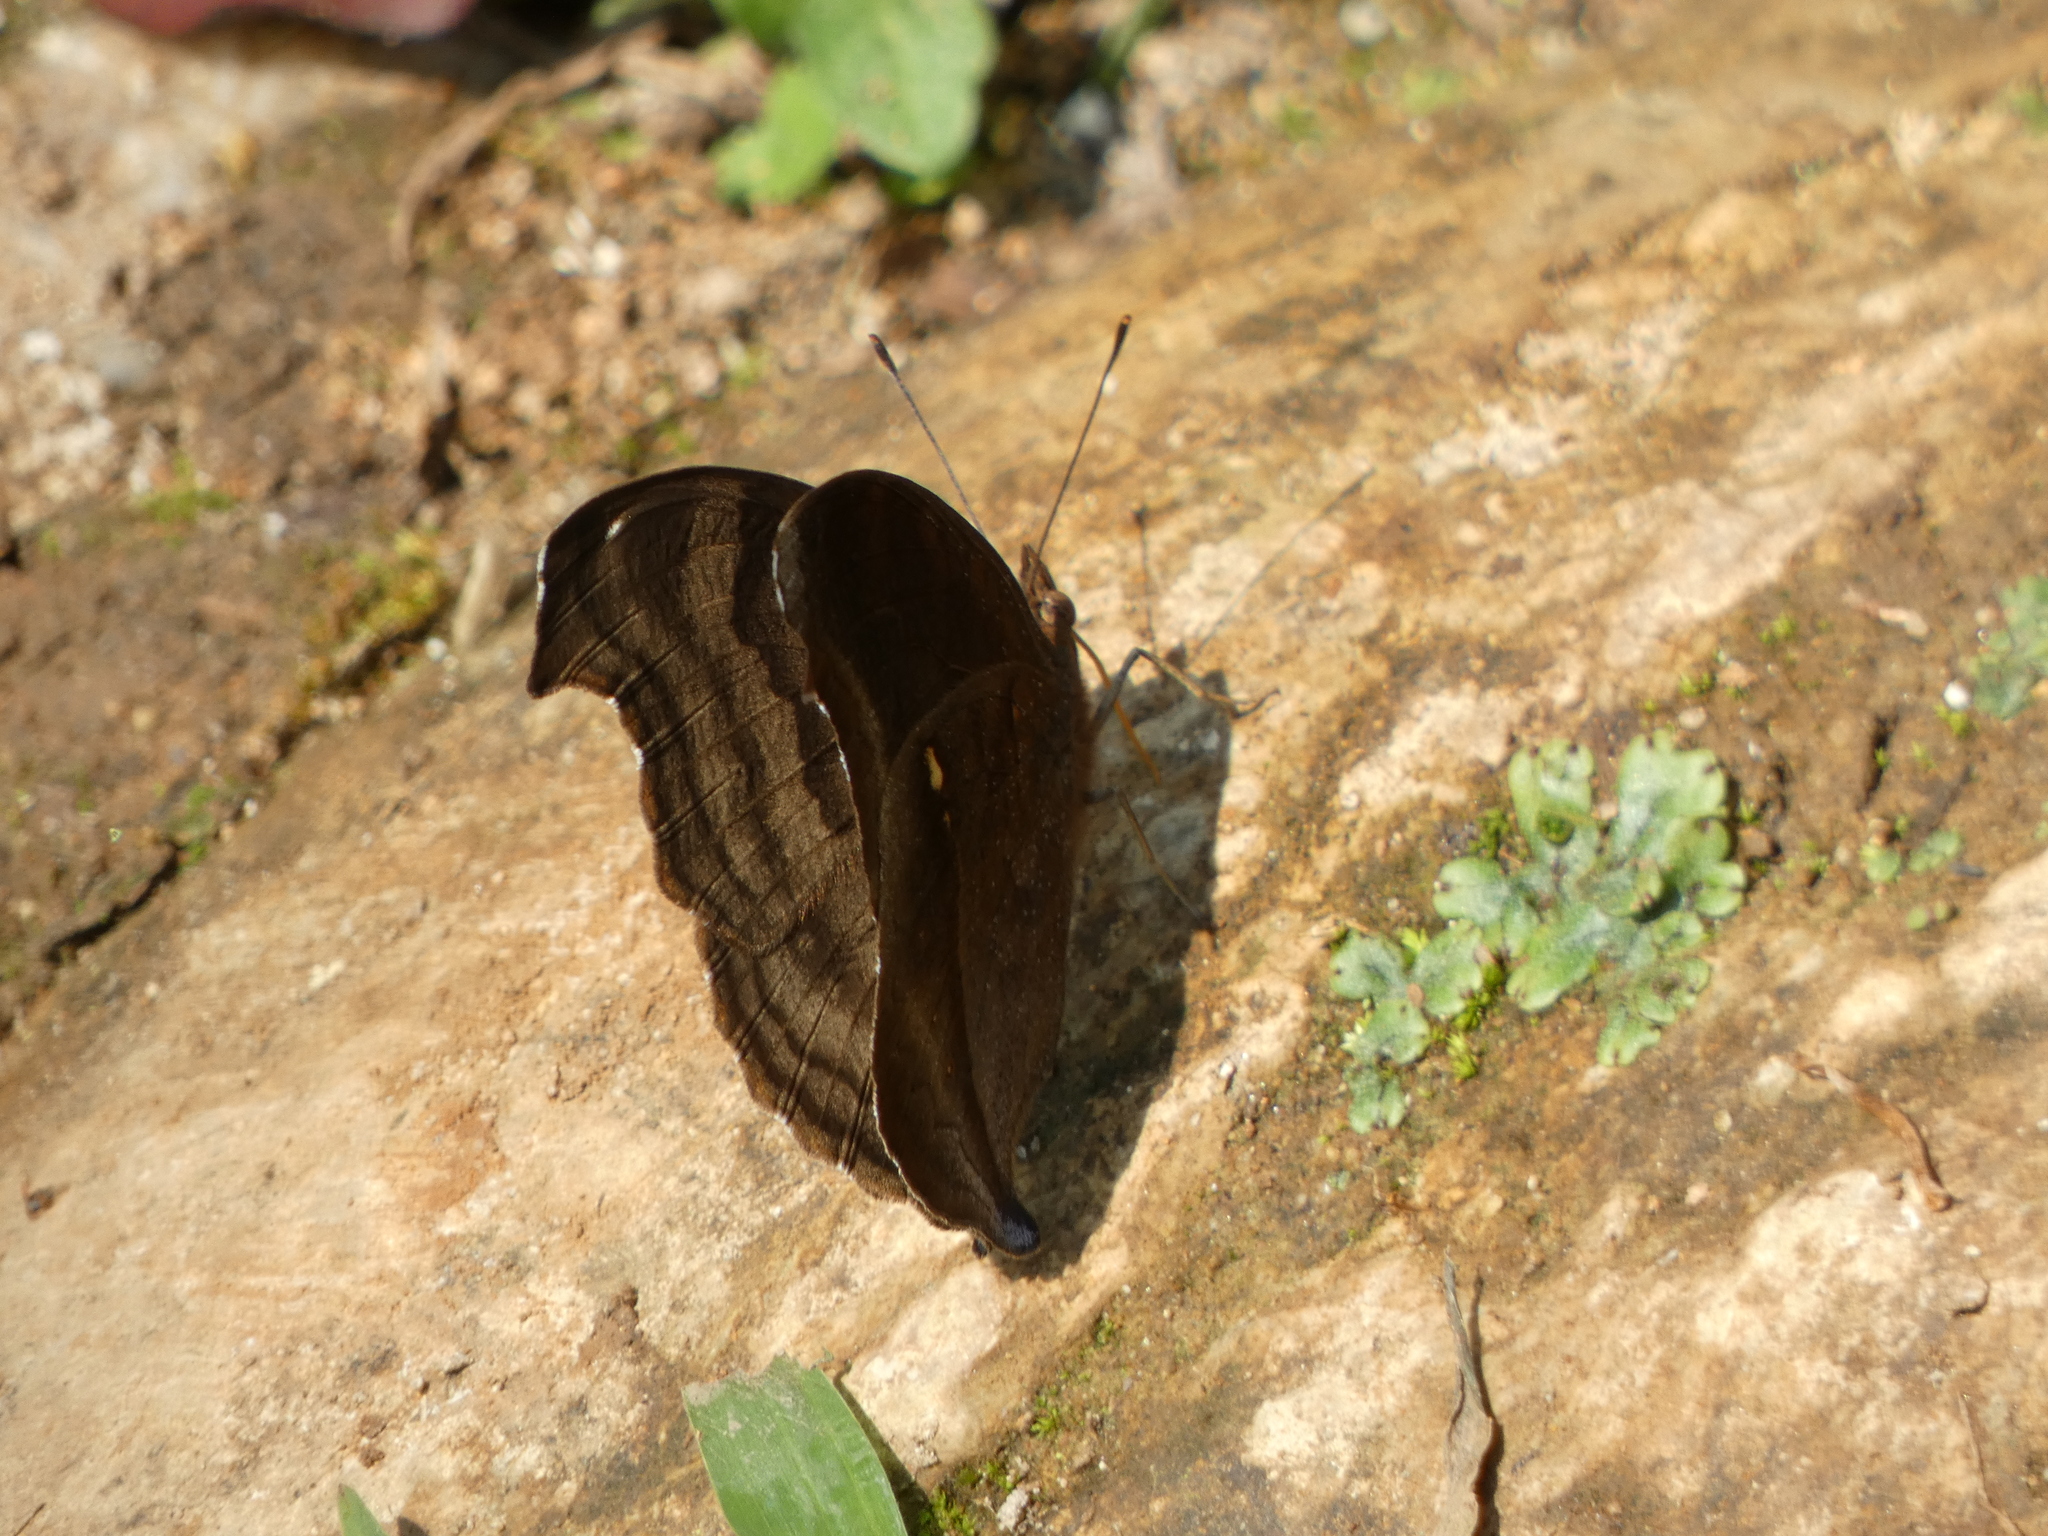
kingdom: Animalia
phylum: Arthropoda
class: Insecta
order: Lepidoptera
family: Nymphalidae
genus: Junonia
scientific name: Junonia iphita
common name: Chocolate pansy
